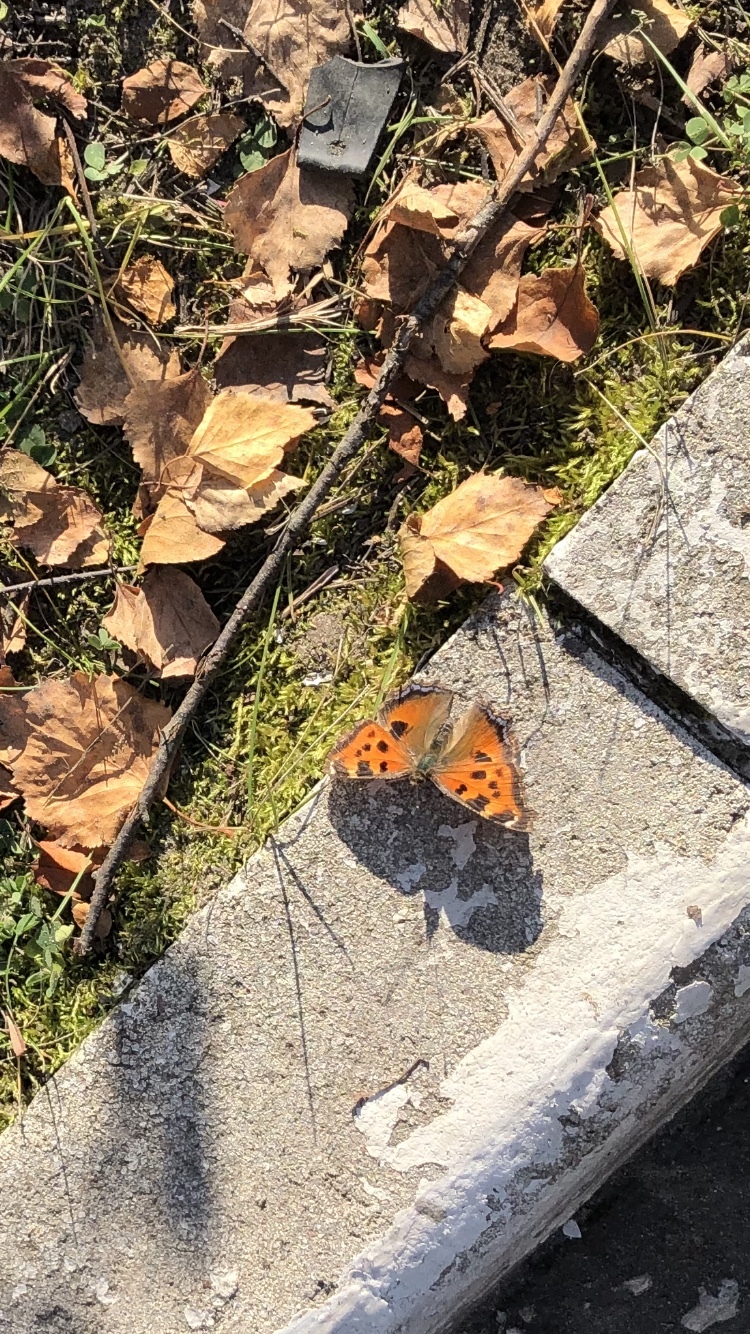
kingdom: Animalia
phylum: Arthropoda
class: Insecta
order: Lepidoptera
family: Nymphalidae
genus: Nymphalis
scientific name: Nymphalis xanthomelas
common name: Scarce tortoiseshell
